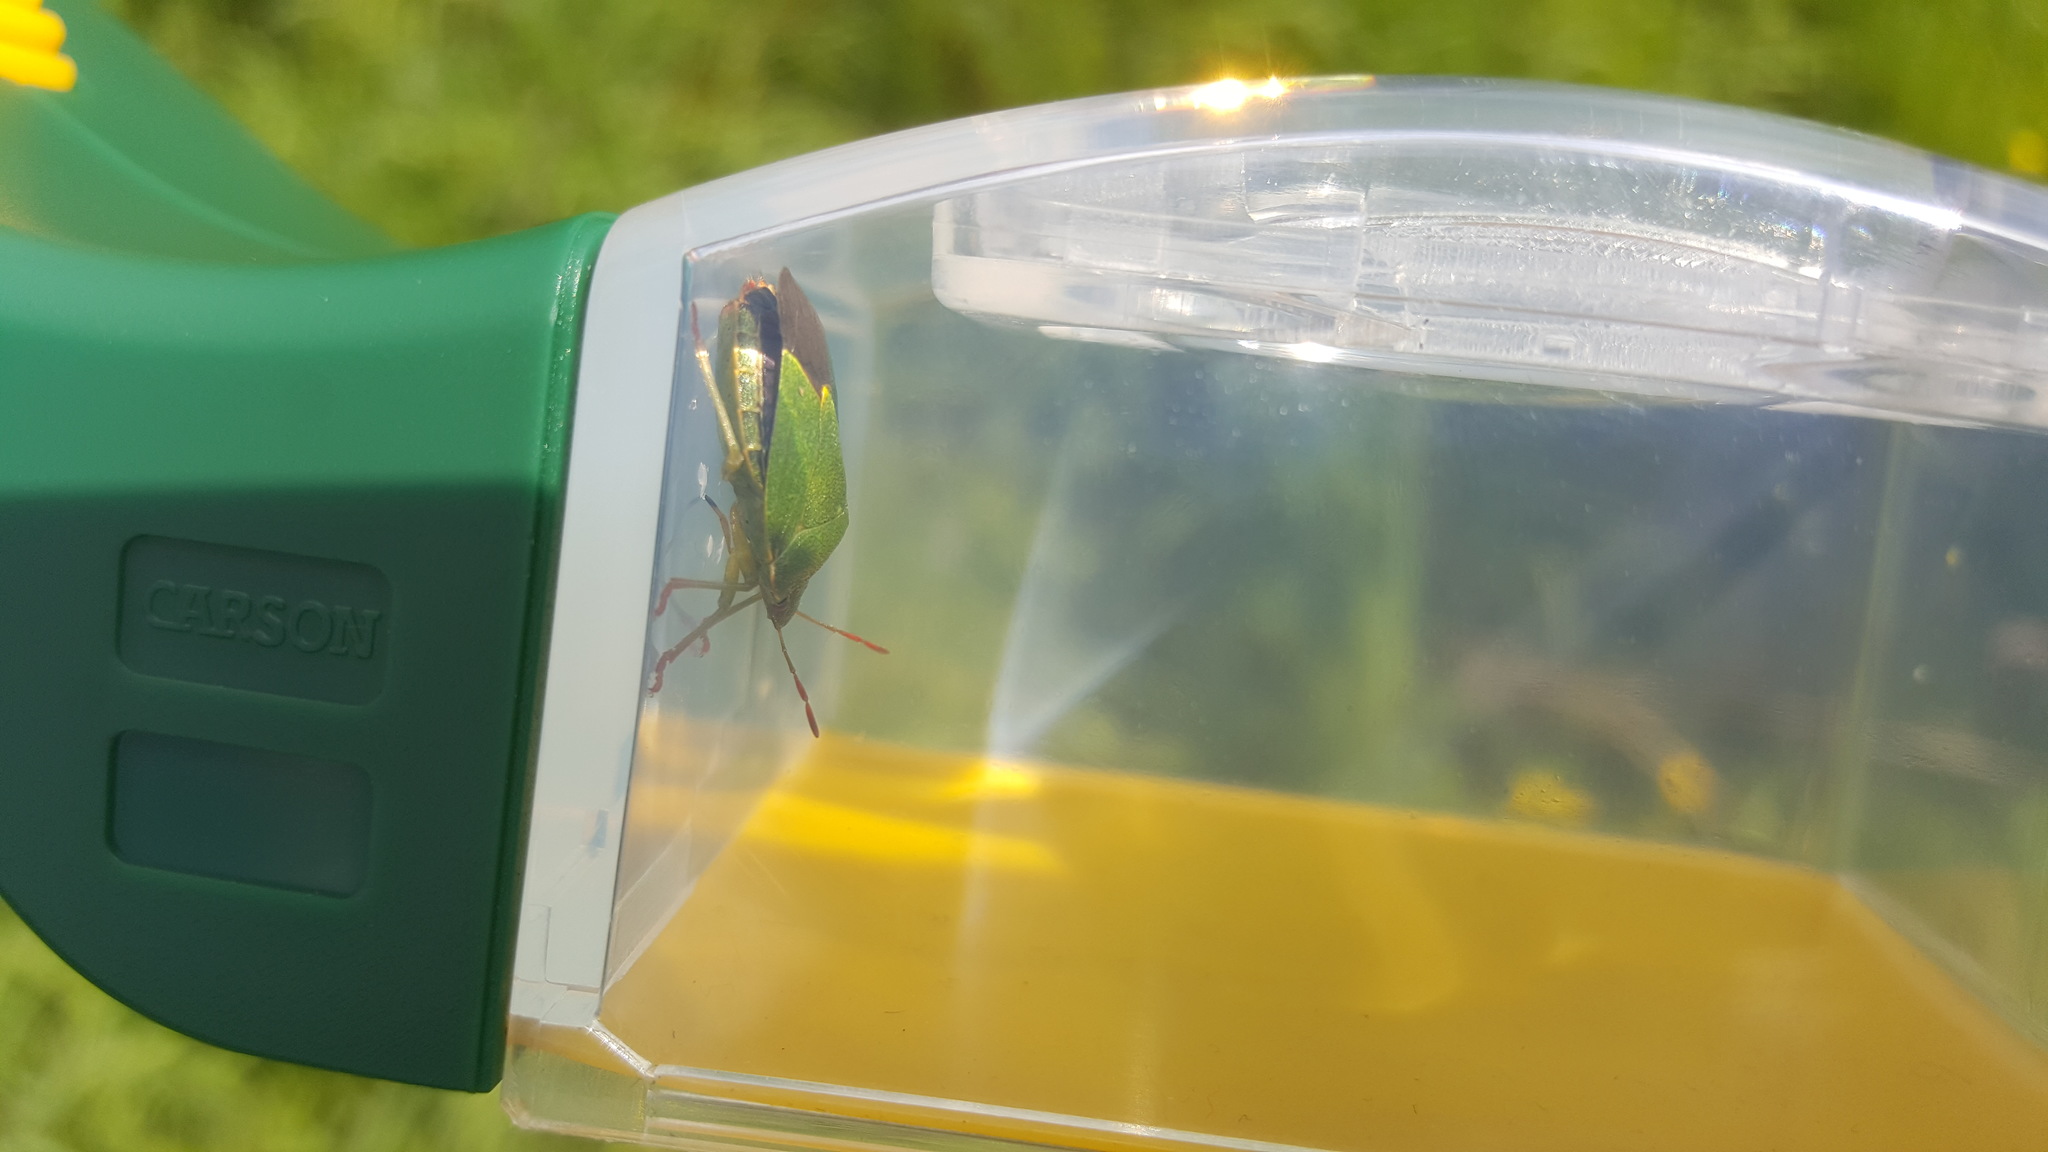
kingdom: Animalia
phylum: Arthropoda
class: Insecta
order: Hemiptera
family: Pentatomidae
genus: Palomena
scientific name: Palomena prasina
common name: Green shieldbug
